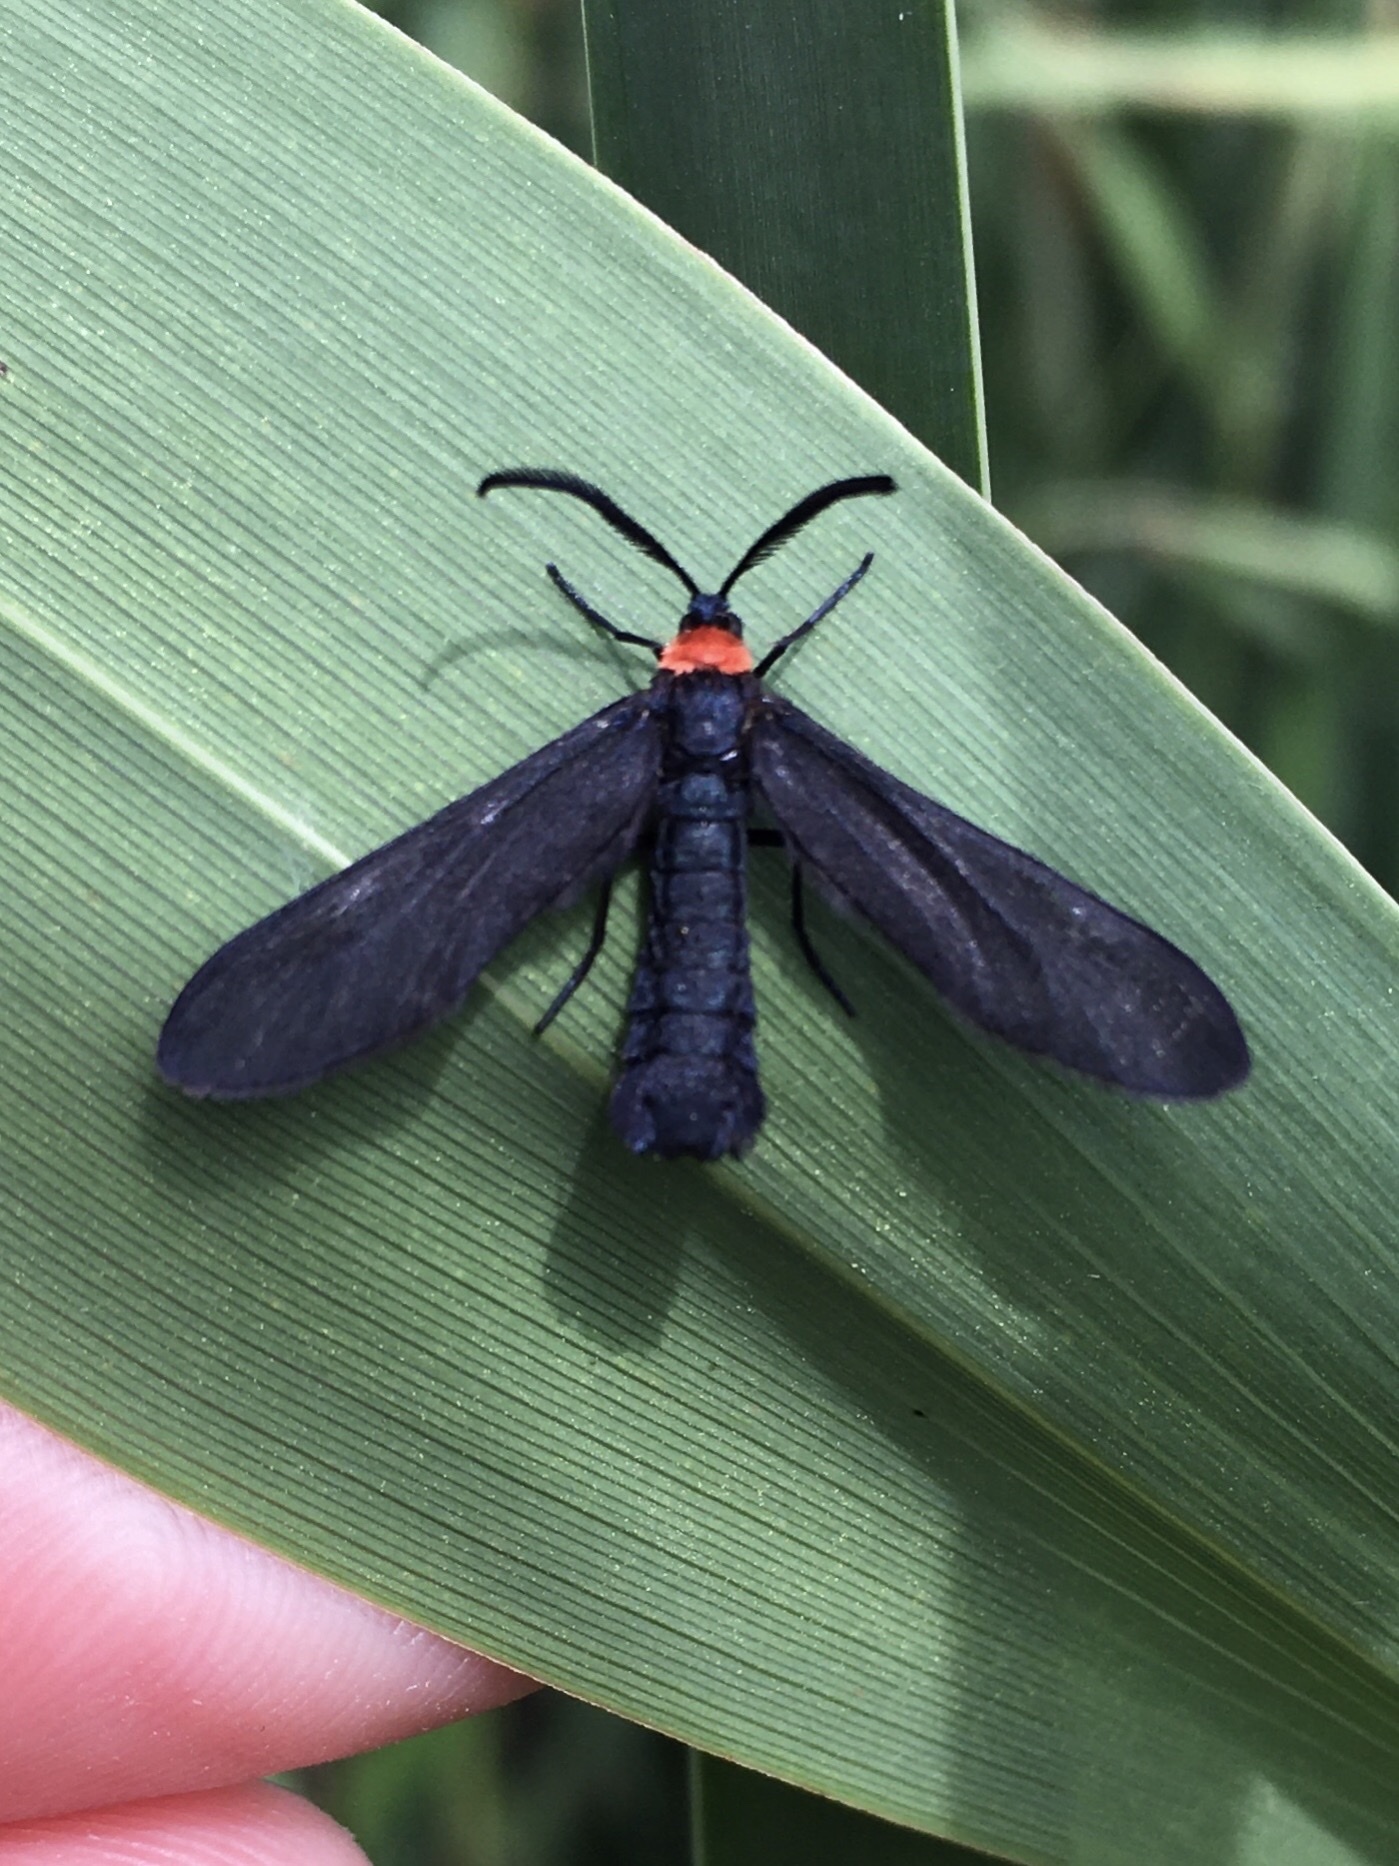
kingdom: Animalia
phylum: Arthropoda
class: Insecta
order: Lepidoptera
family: Zygaenidae
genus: Harrisina
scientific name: Harrisina americana
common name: Grapeleaf skeletonizer moth
